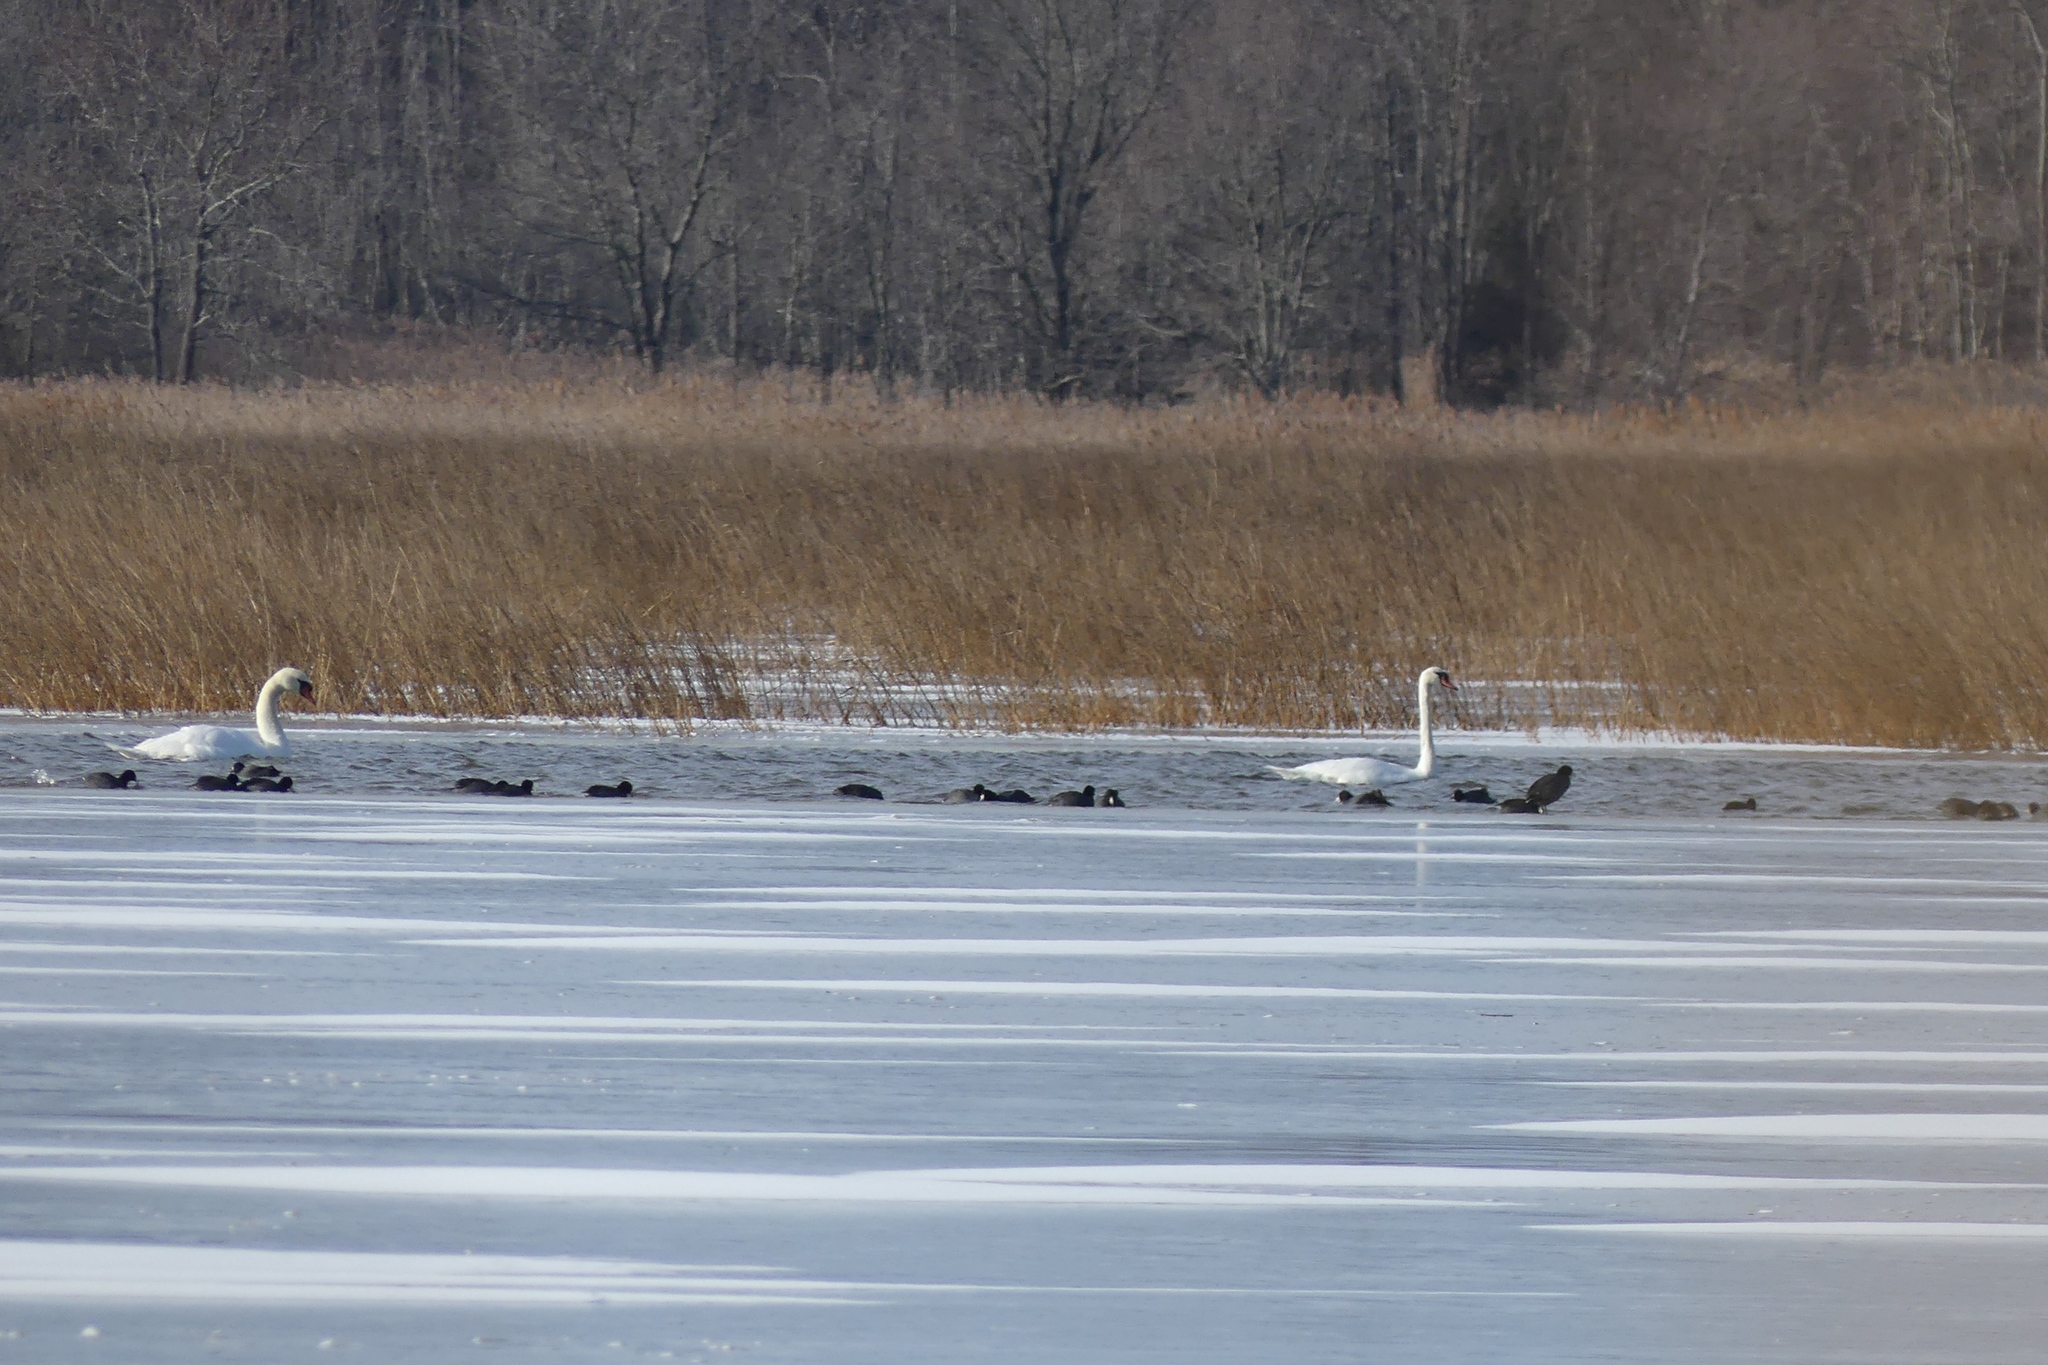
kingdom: Animalia
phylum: Chordata
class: Aves
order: Gruiformes
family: Rallidae
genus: Fulica
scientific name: Fulica americana
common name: American coot
